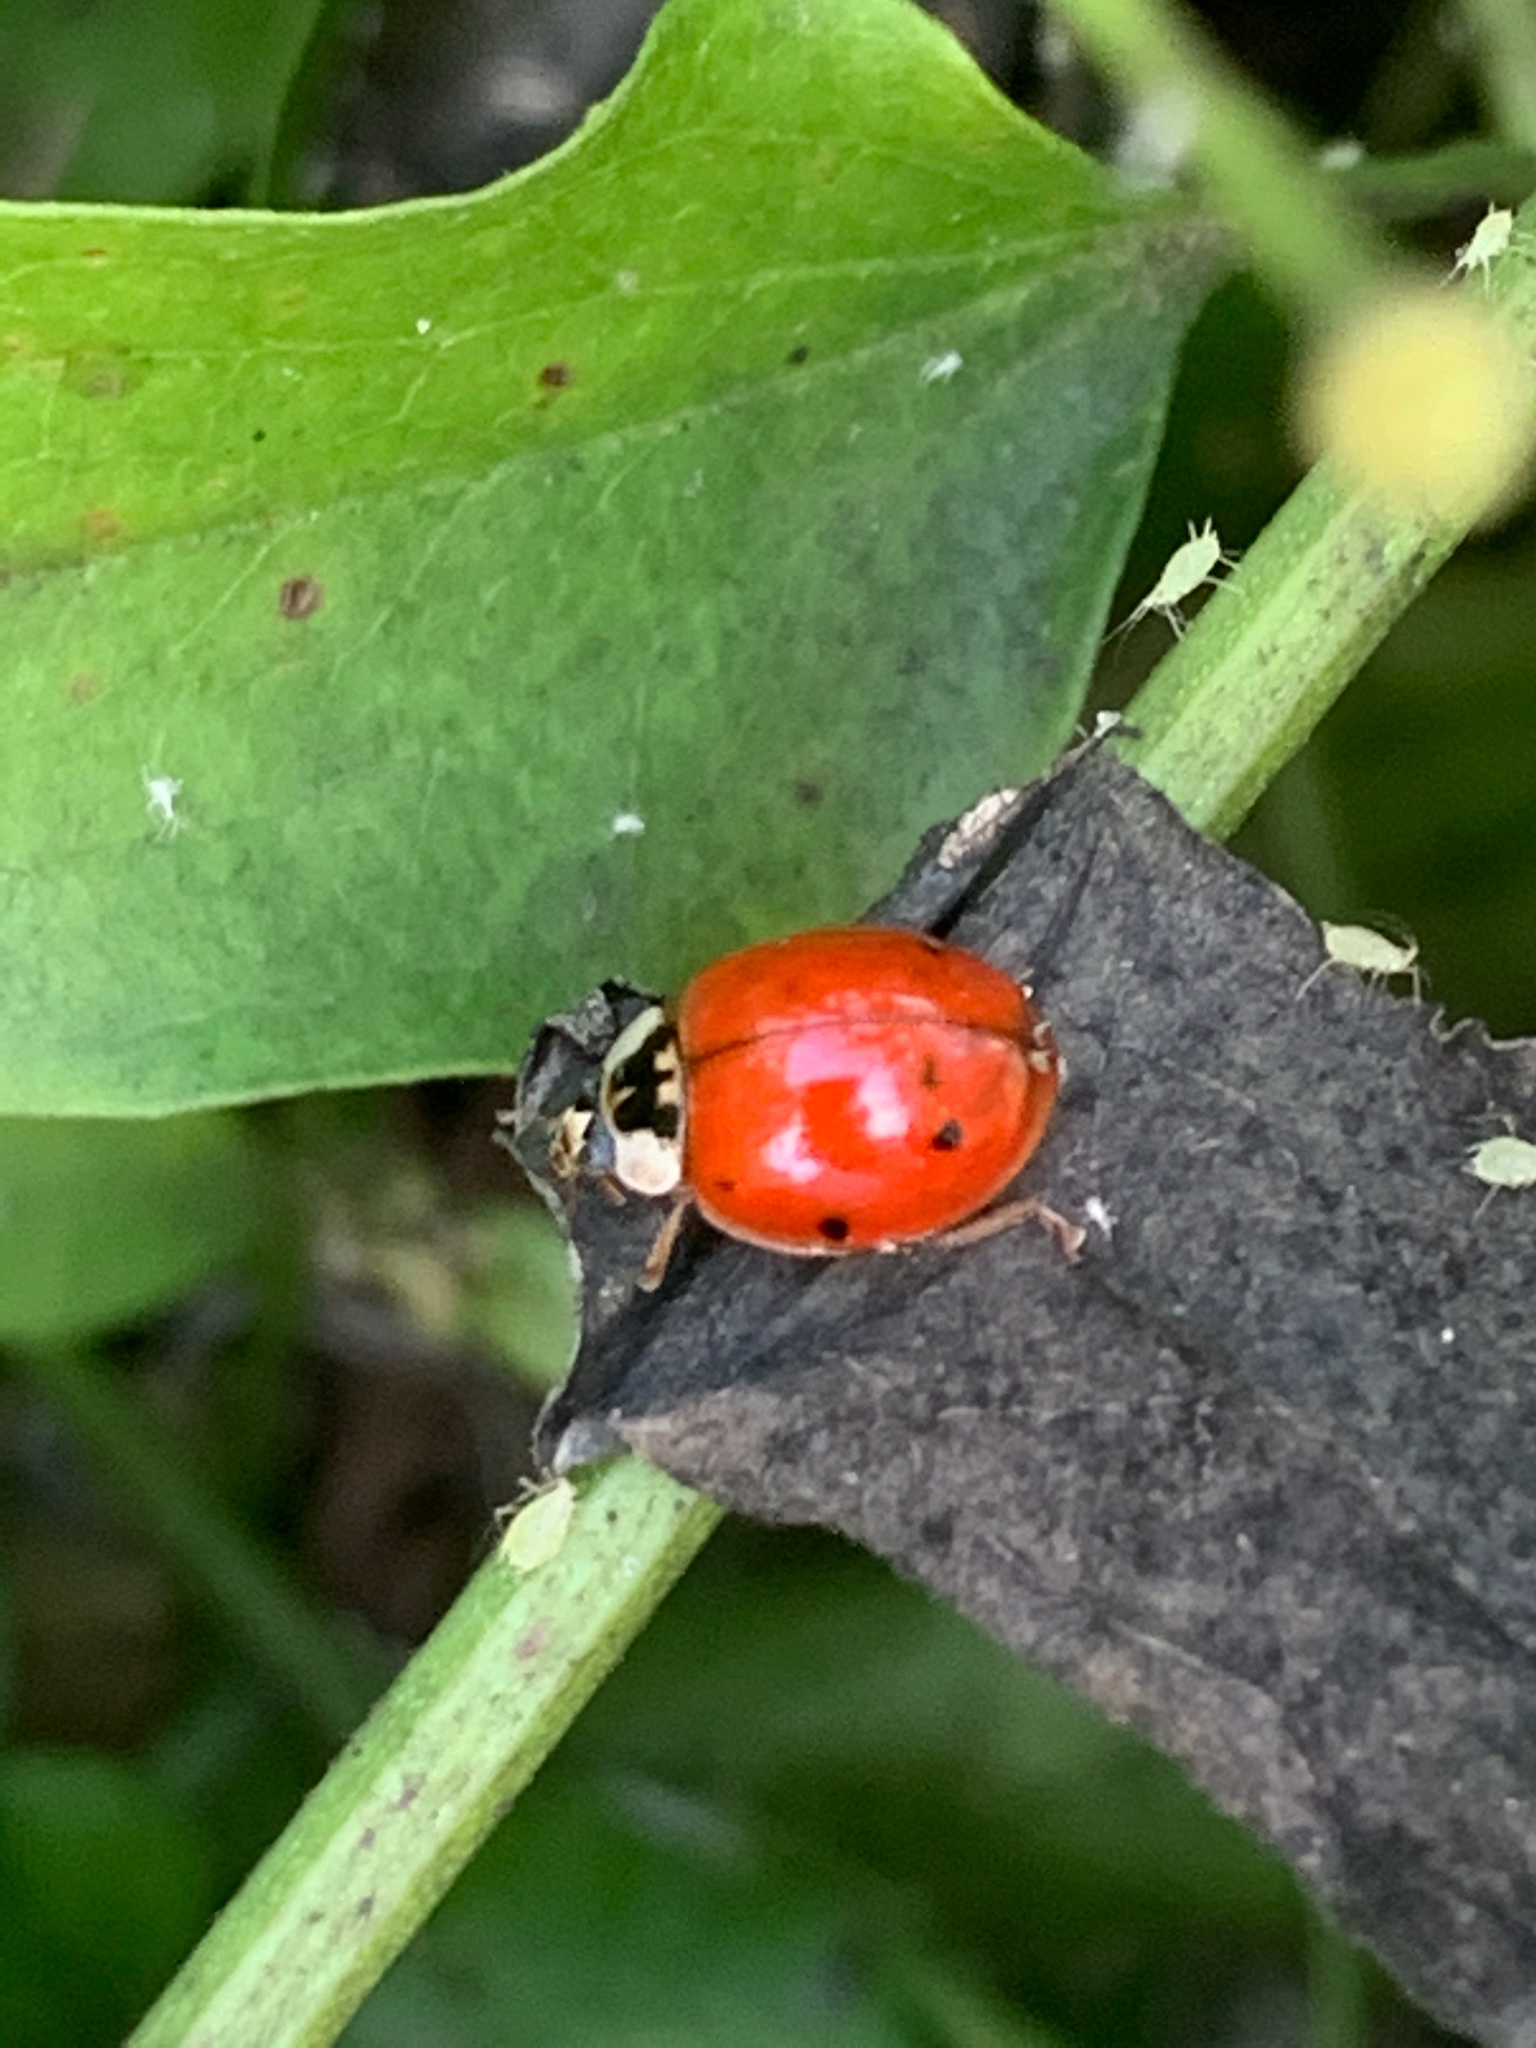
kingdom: Animalia
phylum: Arthropoda
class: Insecta
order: Coleoptera
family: Coccinellidae
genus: Harmonia
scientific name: Harmonia axyridis
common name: Harlequin ladybird
